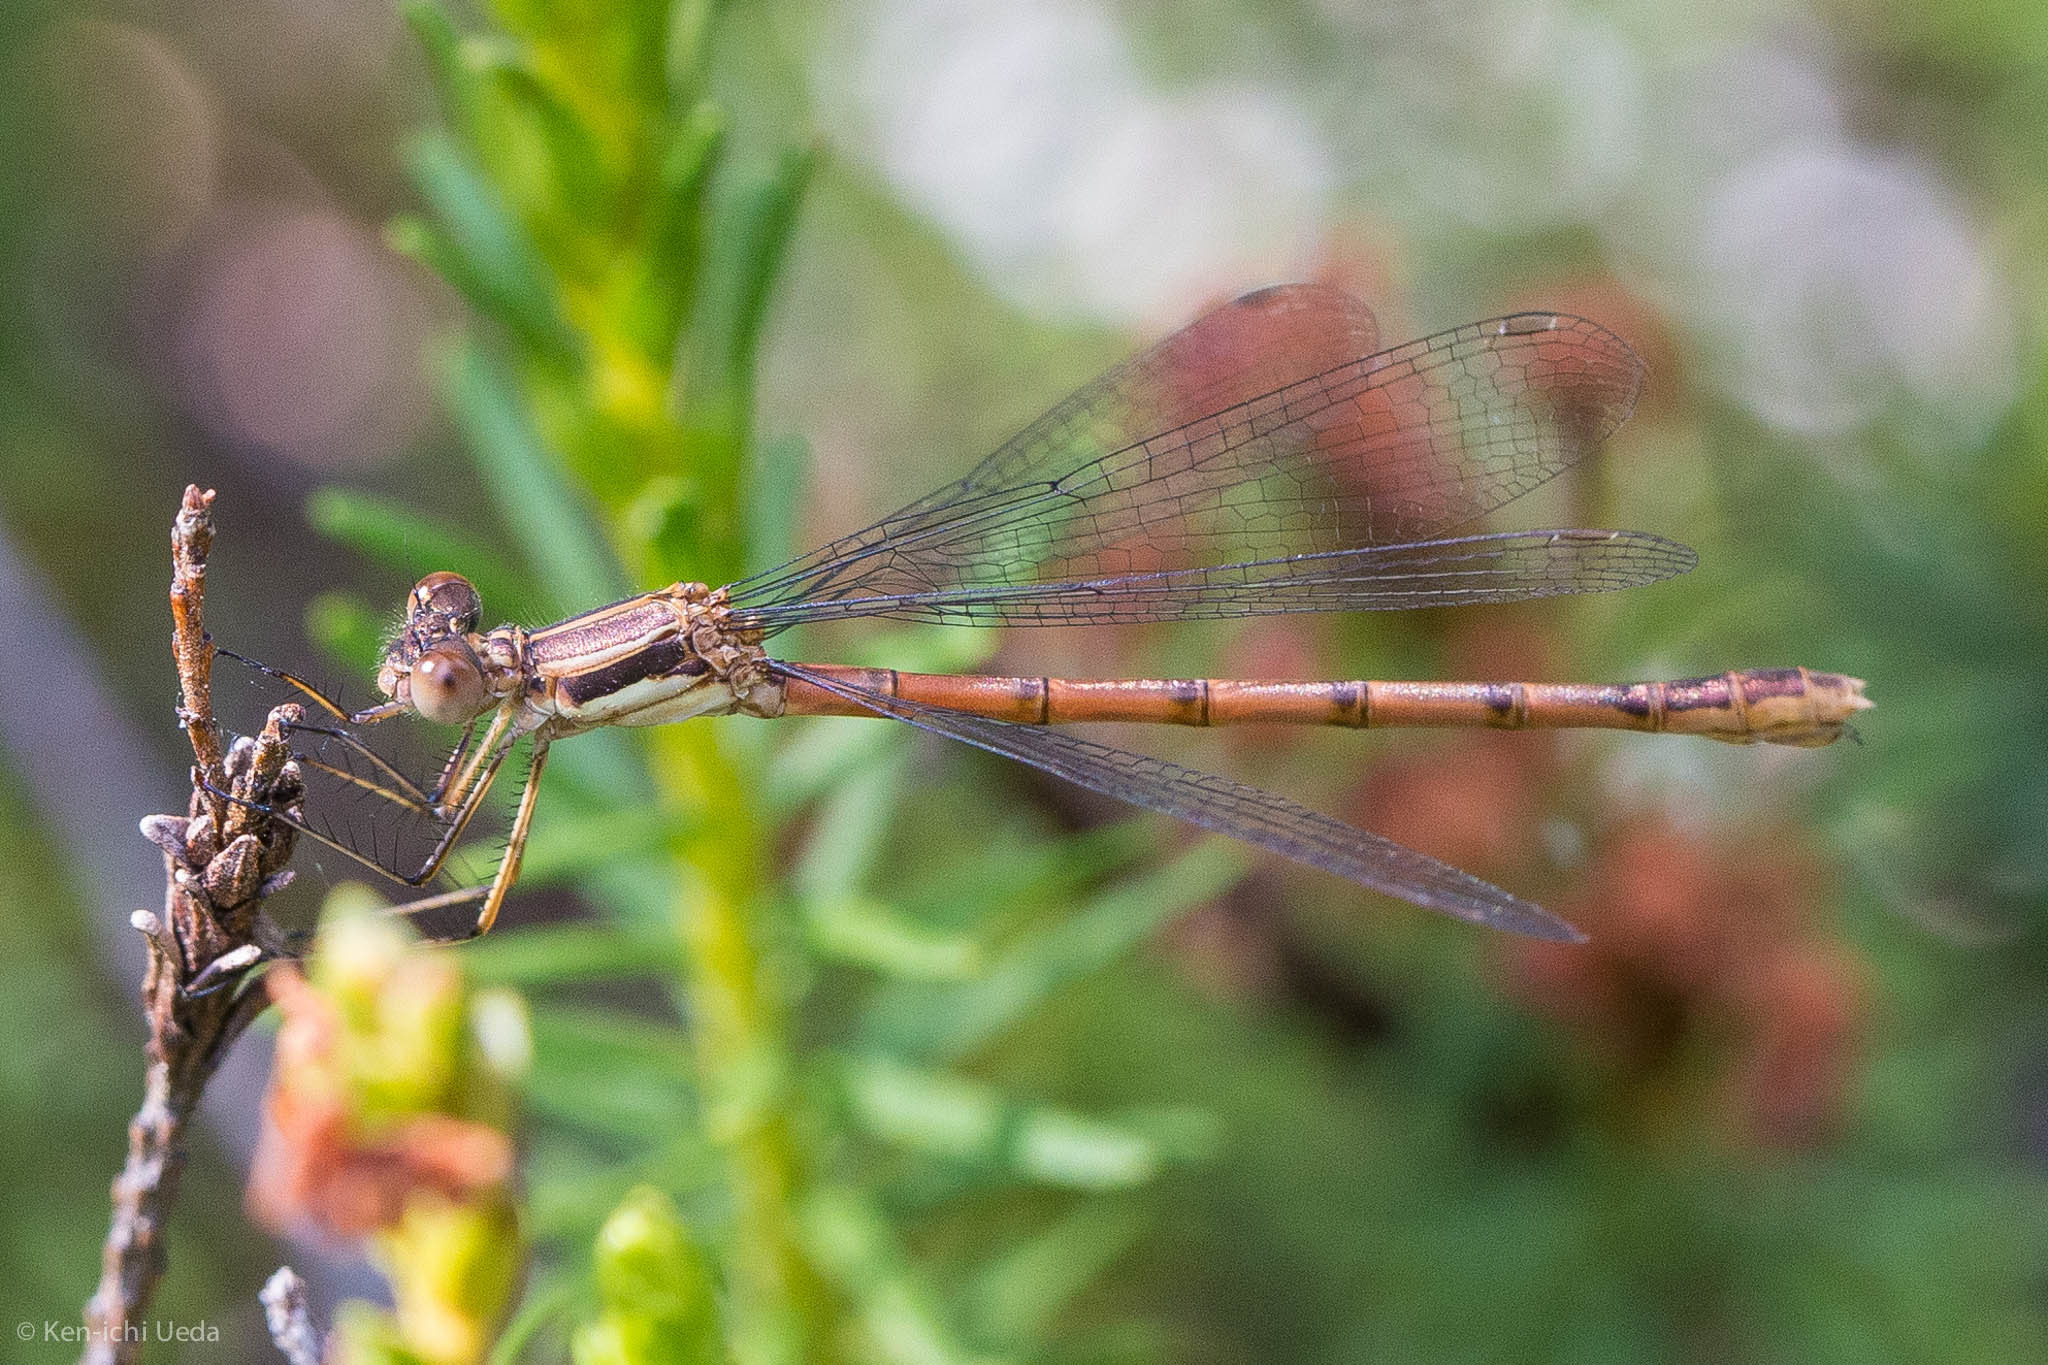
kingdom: Animalia
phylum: Arthropoda
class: Insecta
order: Odonata
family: Lestidae
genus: Lestes
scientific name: Lestes disjunctus
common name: Northern spreadwing
